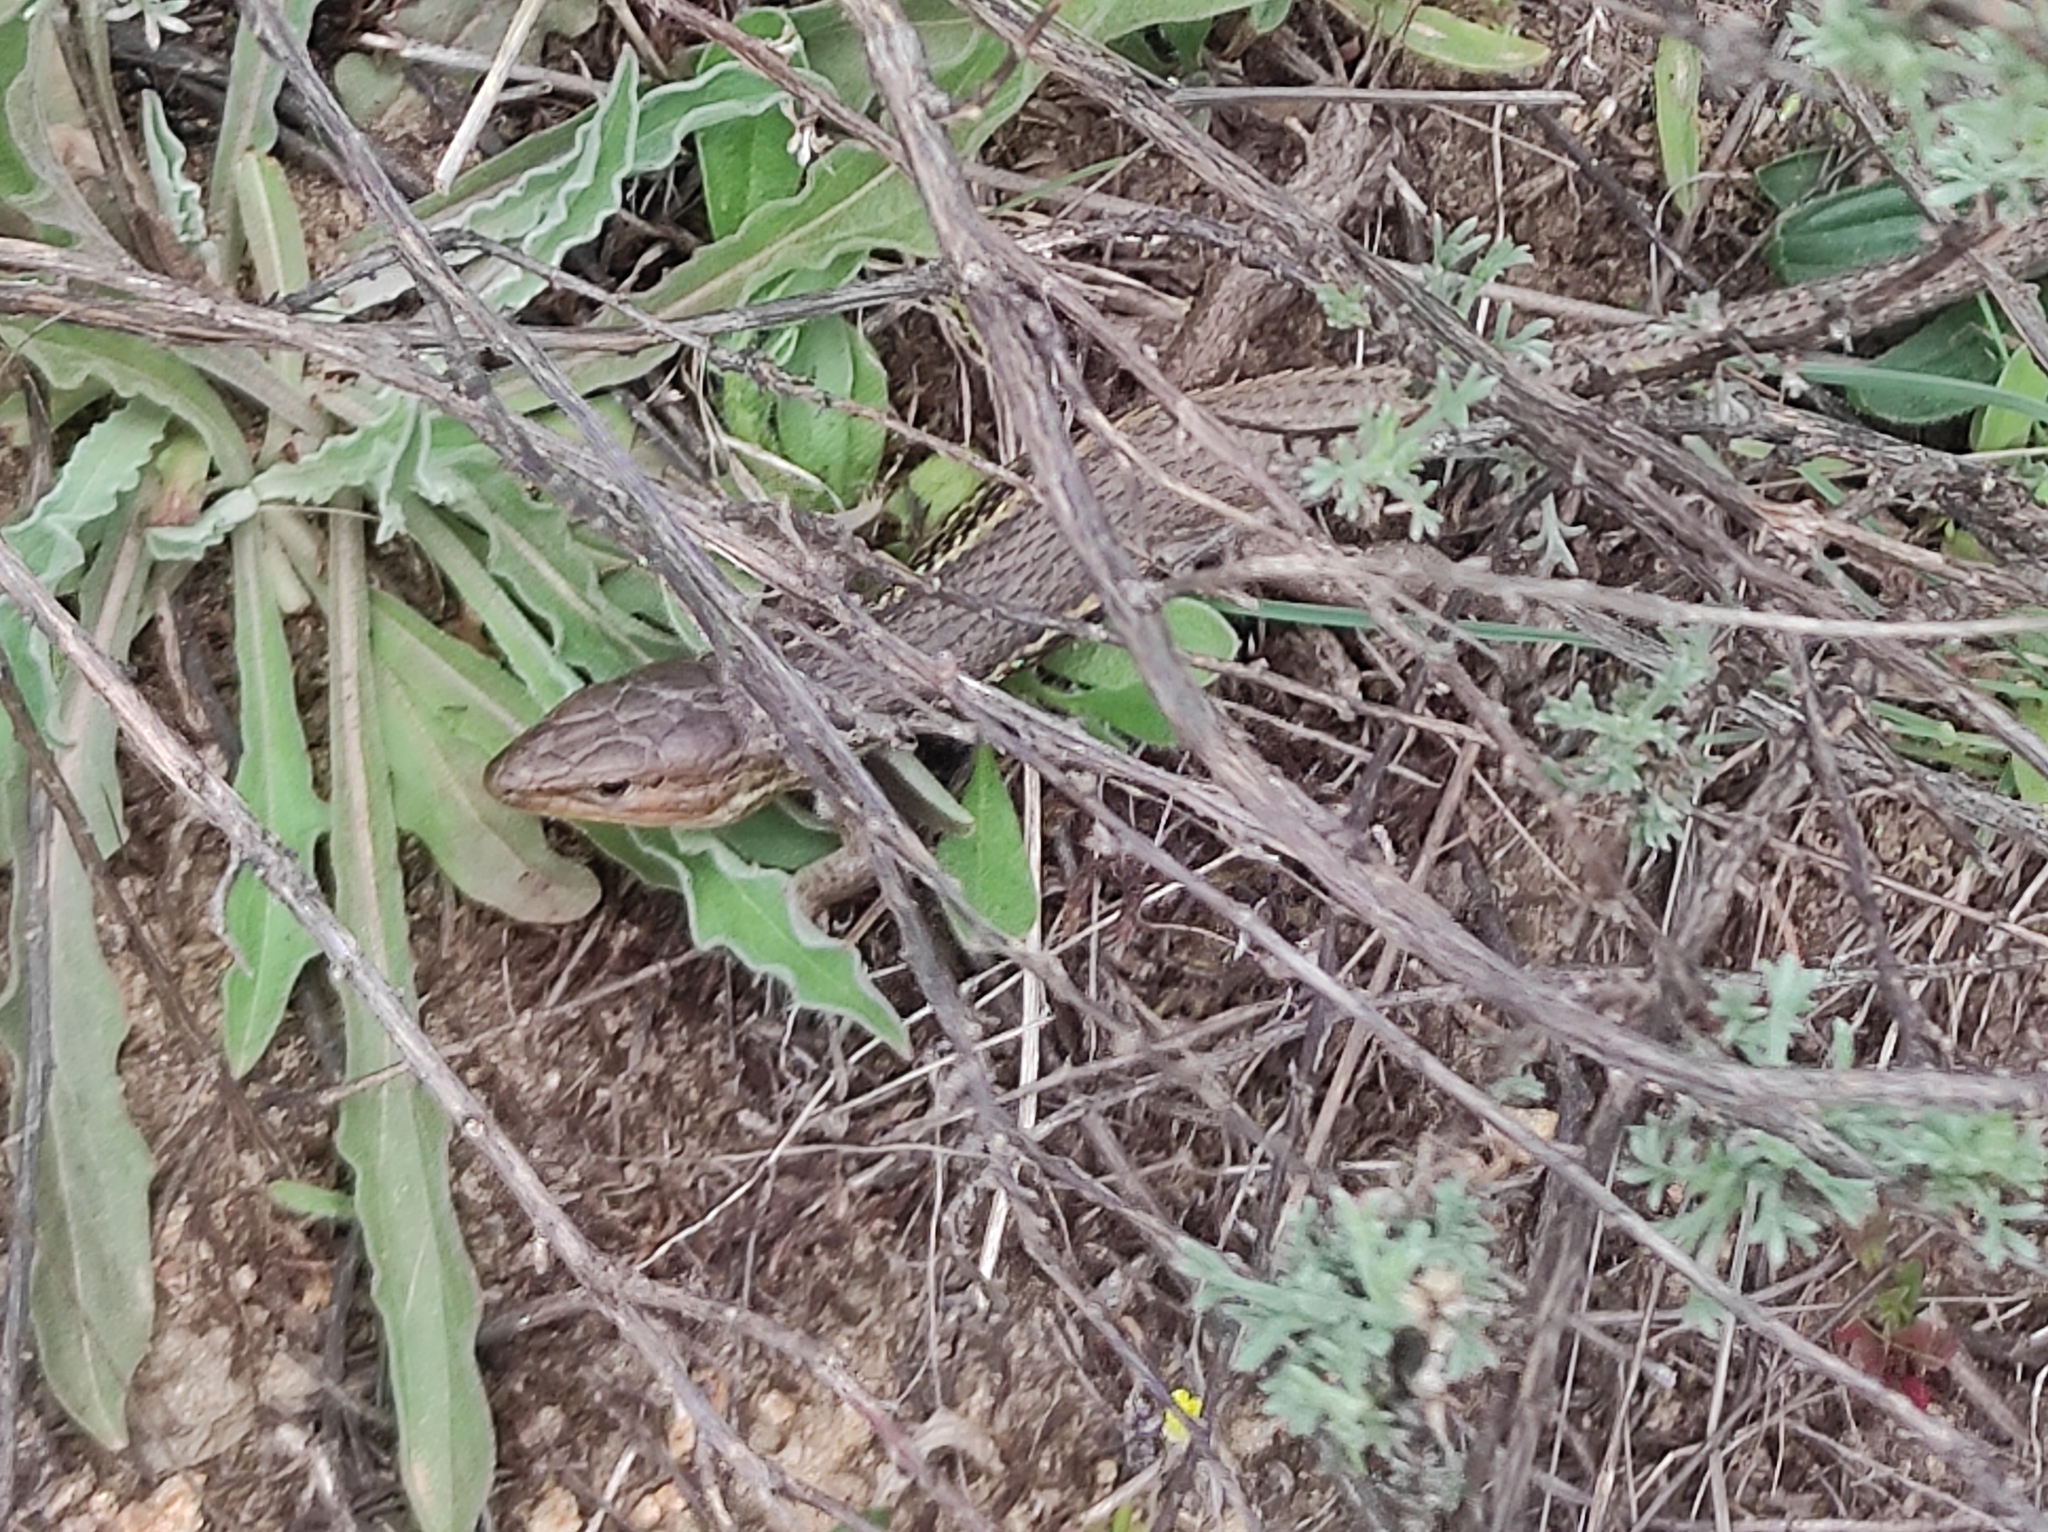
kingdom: Animalia
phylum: Chordata
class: Squamata
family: Lacertidae
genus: Psammodromus
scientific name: Psammodromus algirus
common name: Algerian psammodromus
